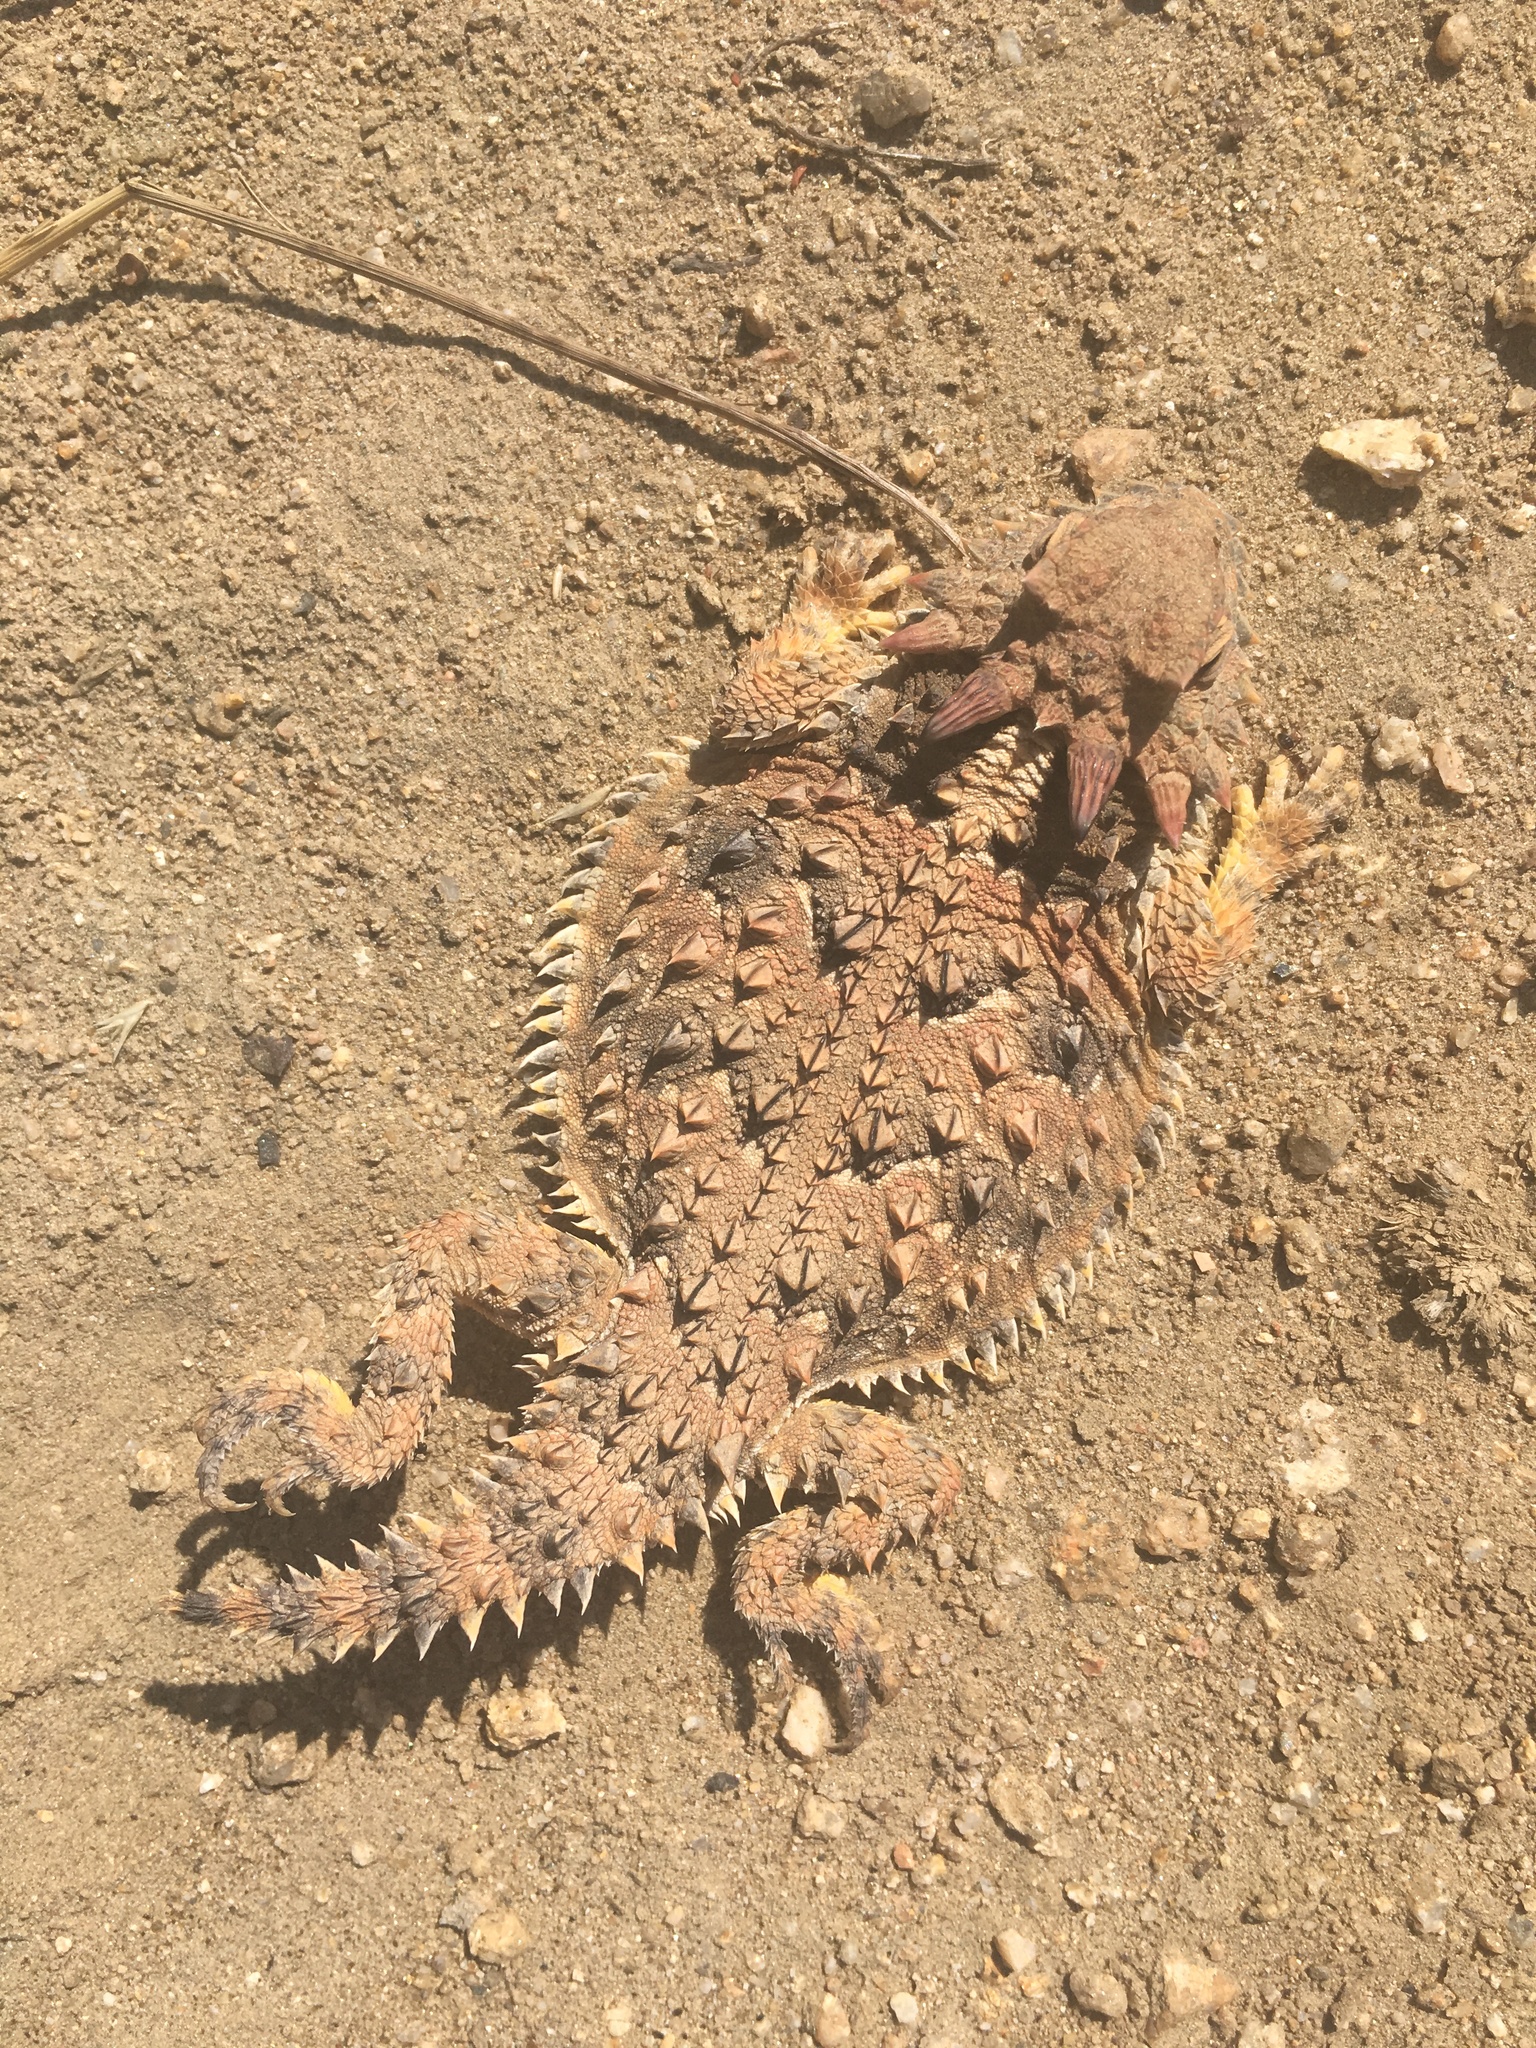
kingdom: Animalia
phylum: Chordata
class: Squamata
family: Phrynosomatidae
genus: Phrynosoma
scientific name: Phrynosoma blainvillii
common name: San diego horned lizard
